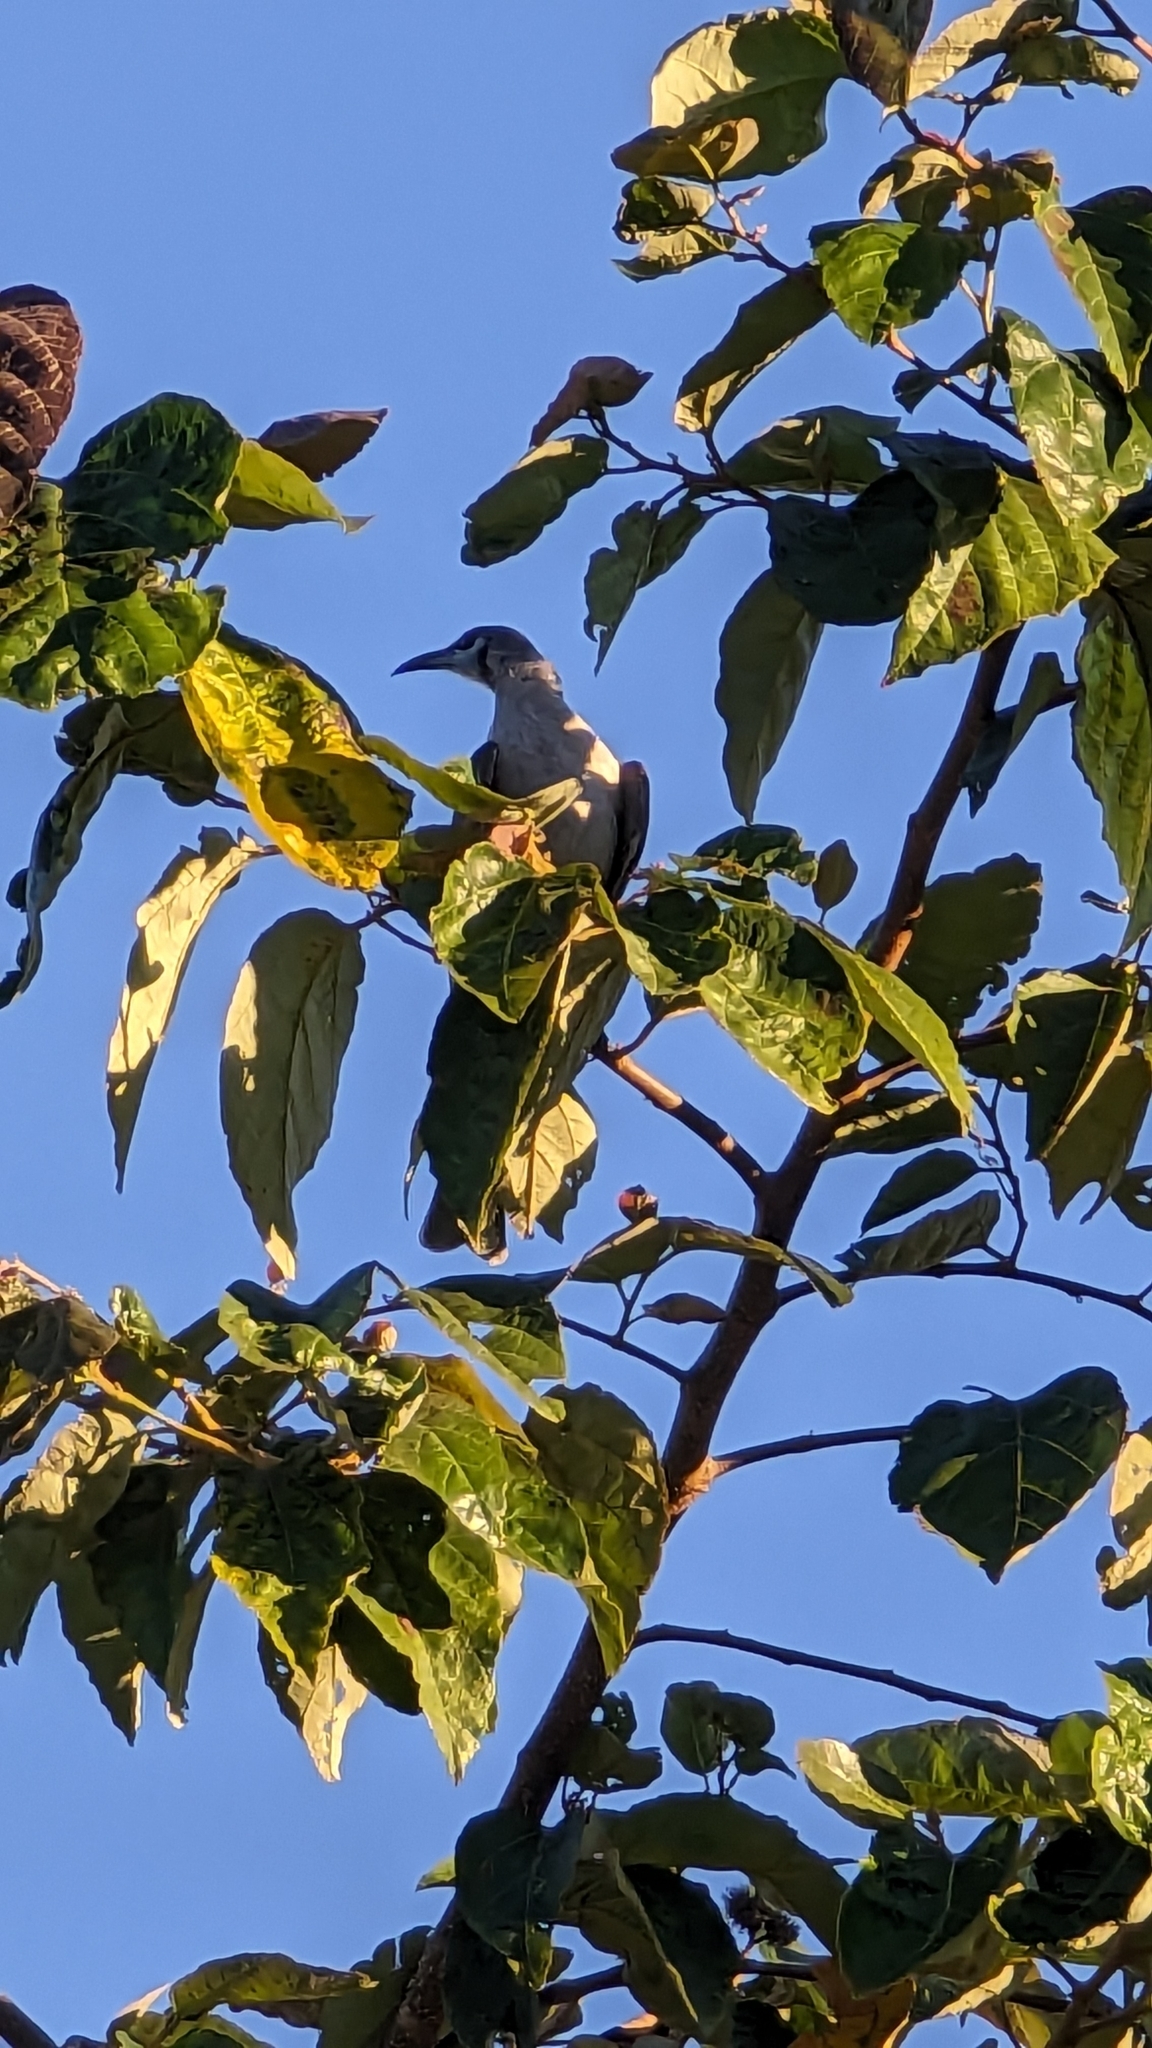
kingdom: Animalia
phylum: Chordata
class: Aves
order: Passeriformes
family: Meliphagidae
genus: Philemon
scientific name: Philemon citreogularis
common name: Little friarbird
